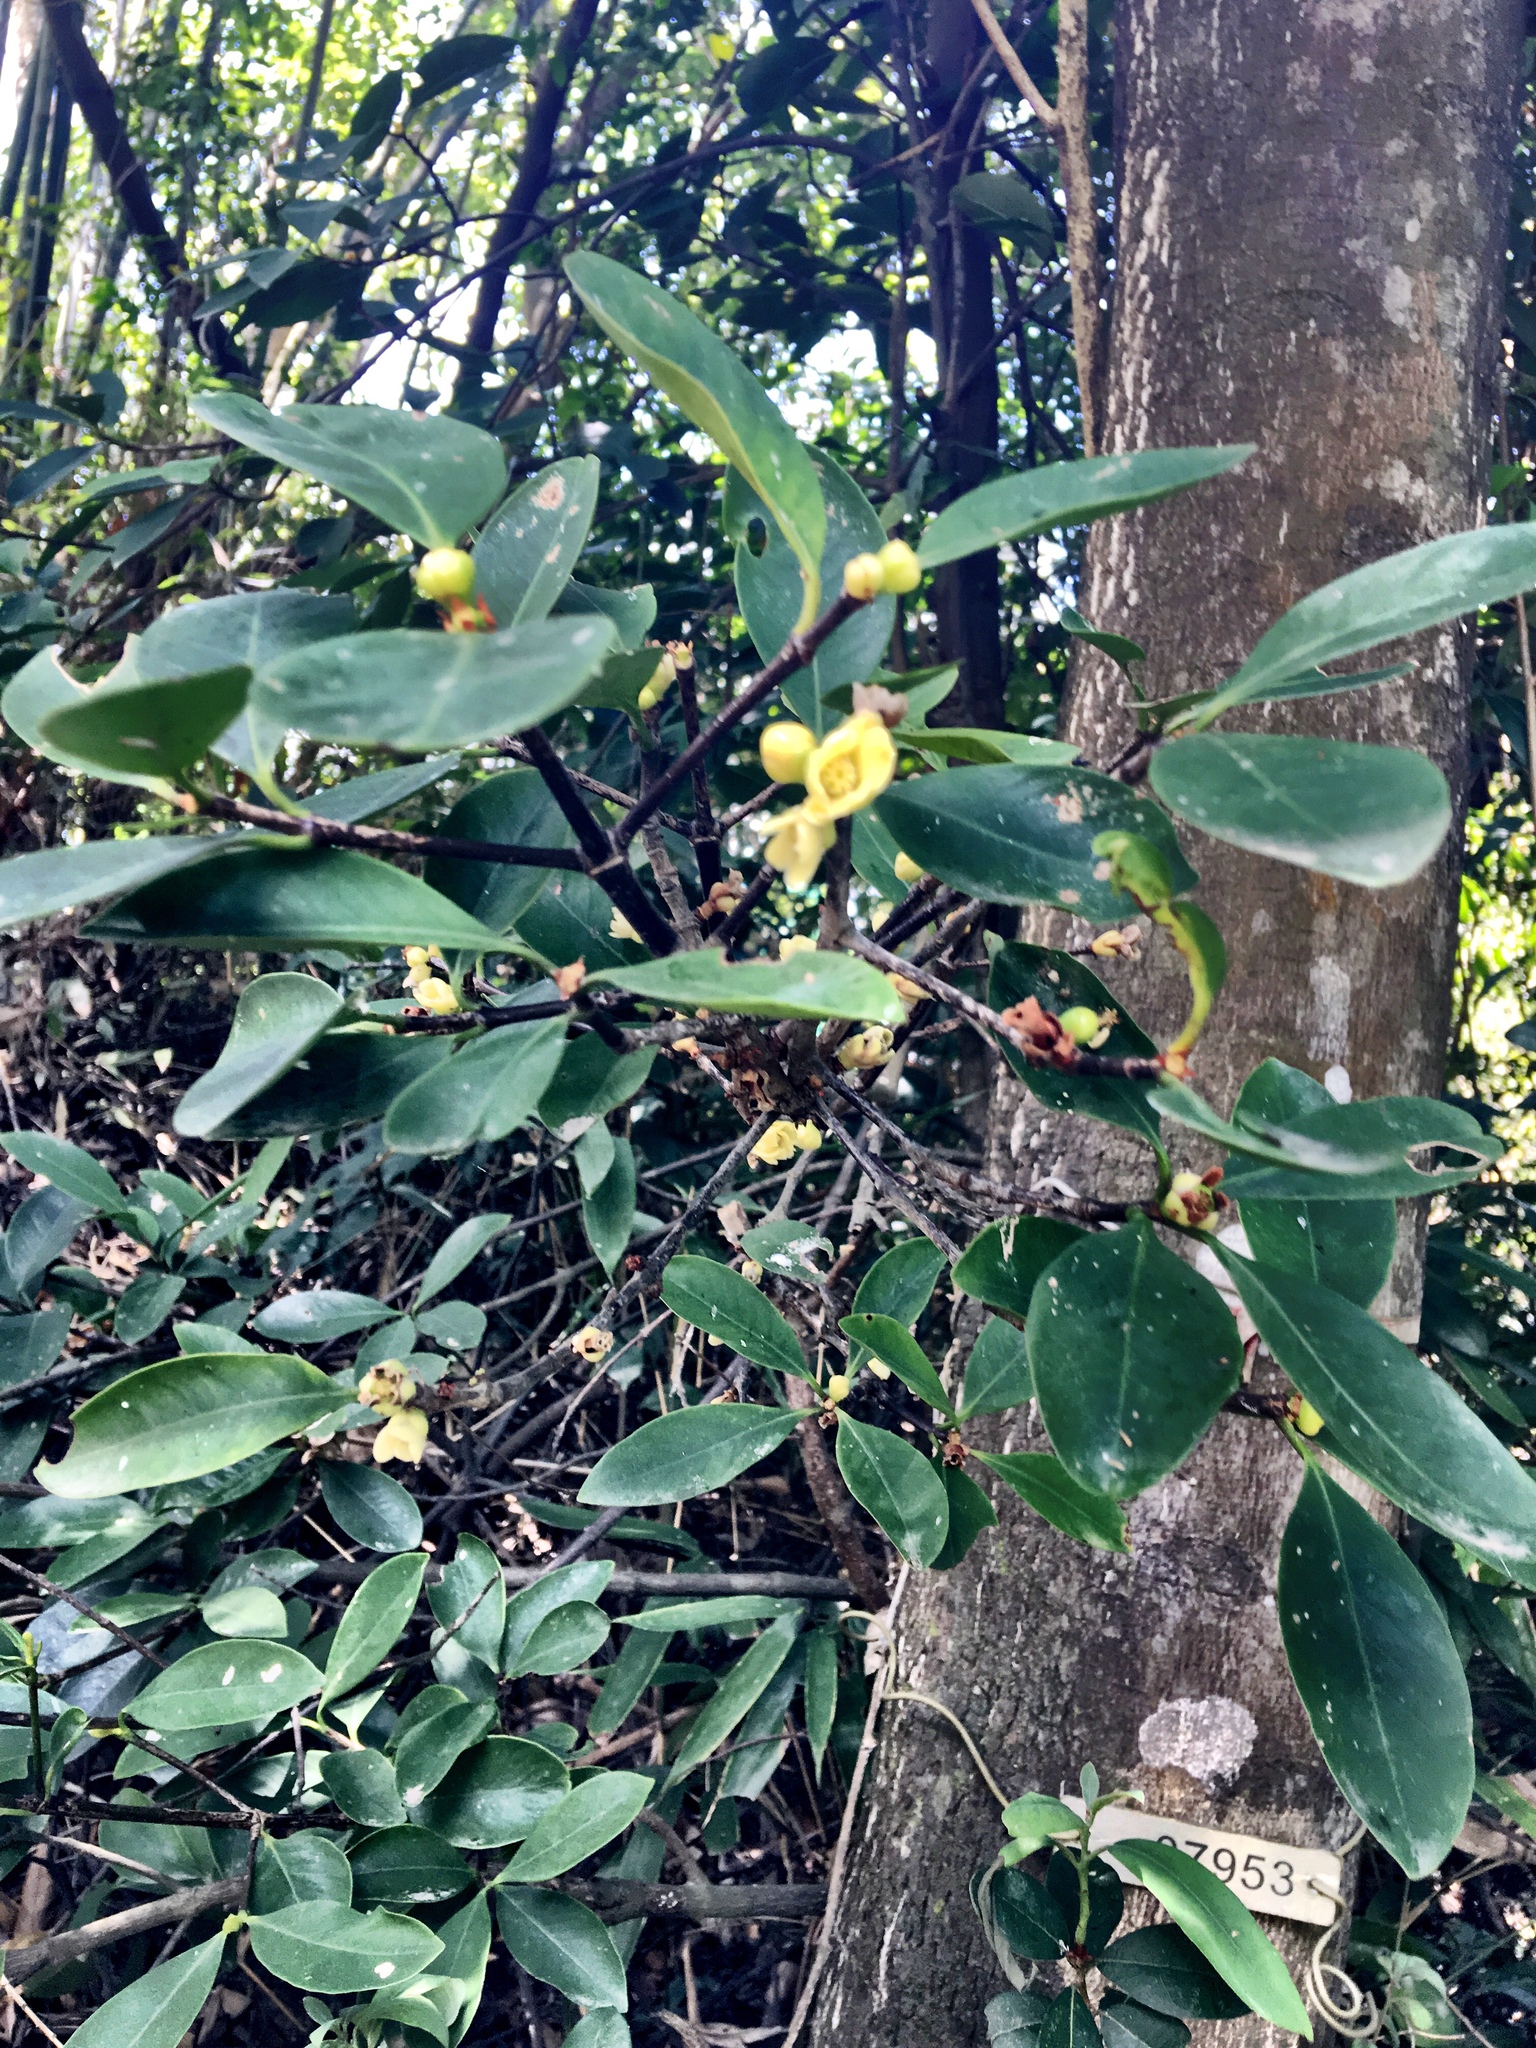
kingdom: Plantae
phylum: Tracheophyta
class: Magnoliopsida
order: Malpighiales
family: Clusiaceae
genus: Garcinia
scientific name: Garcinia oblongifolia
